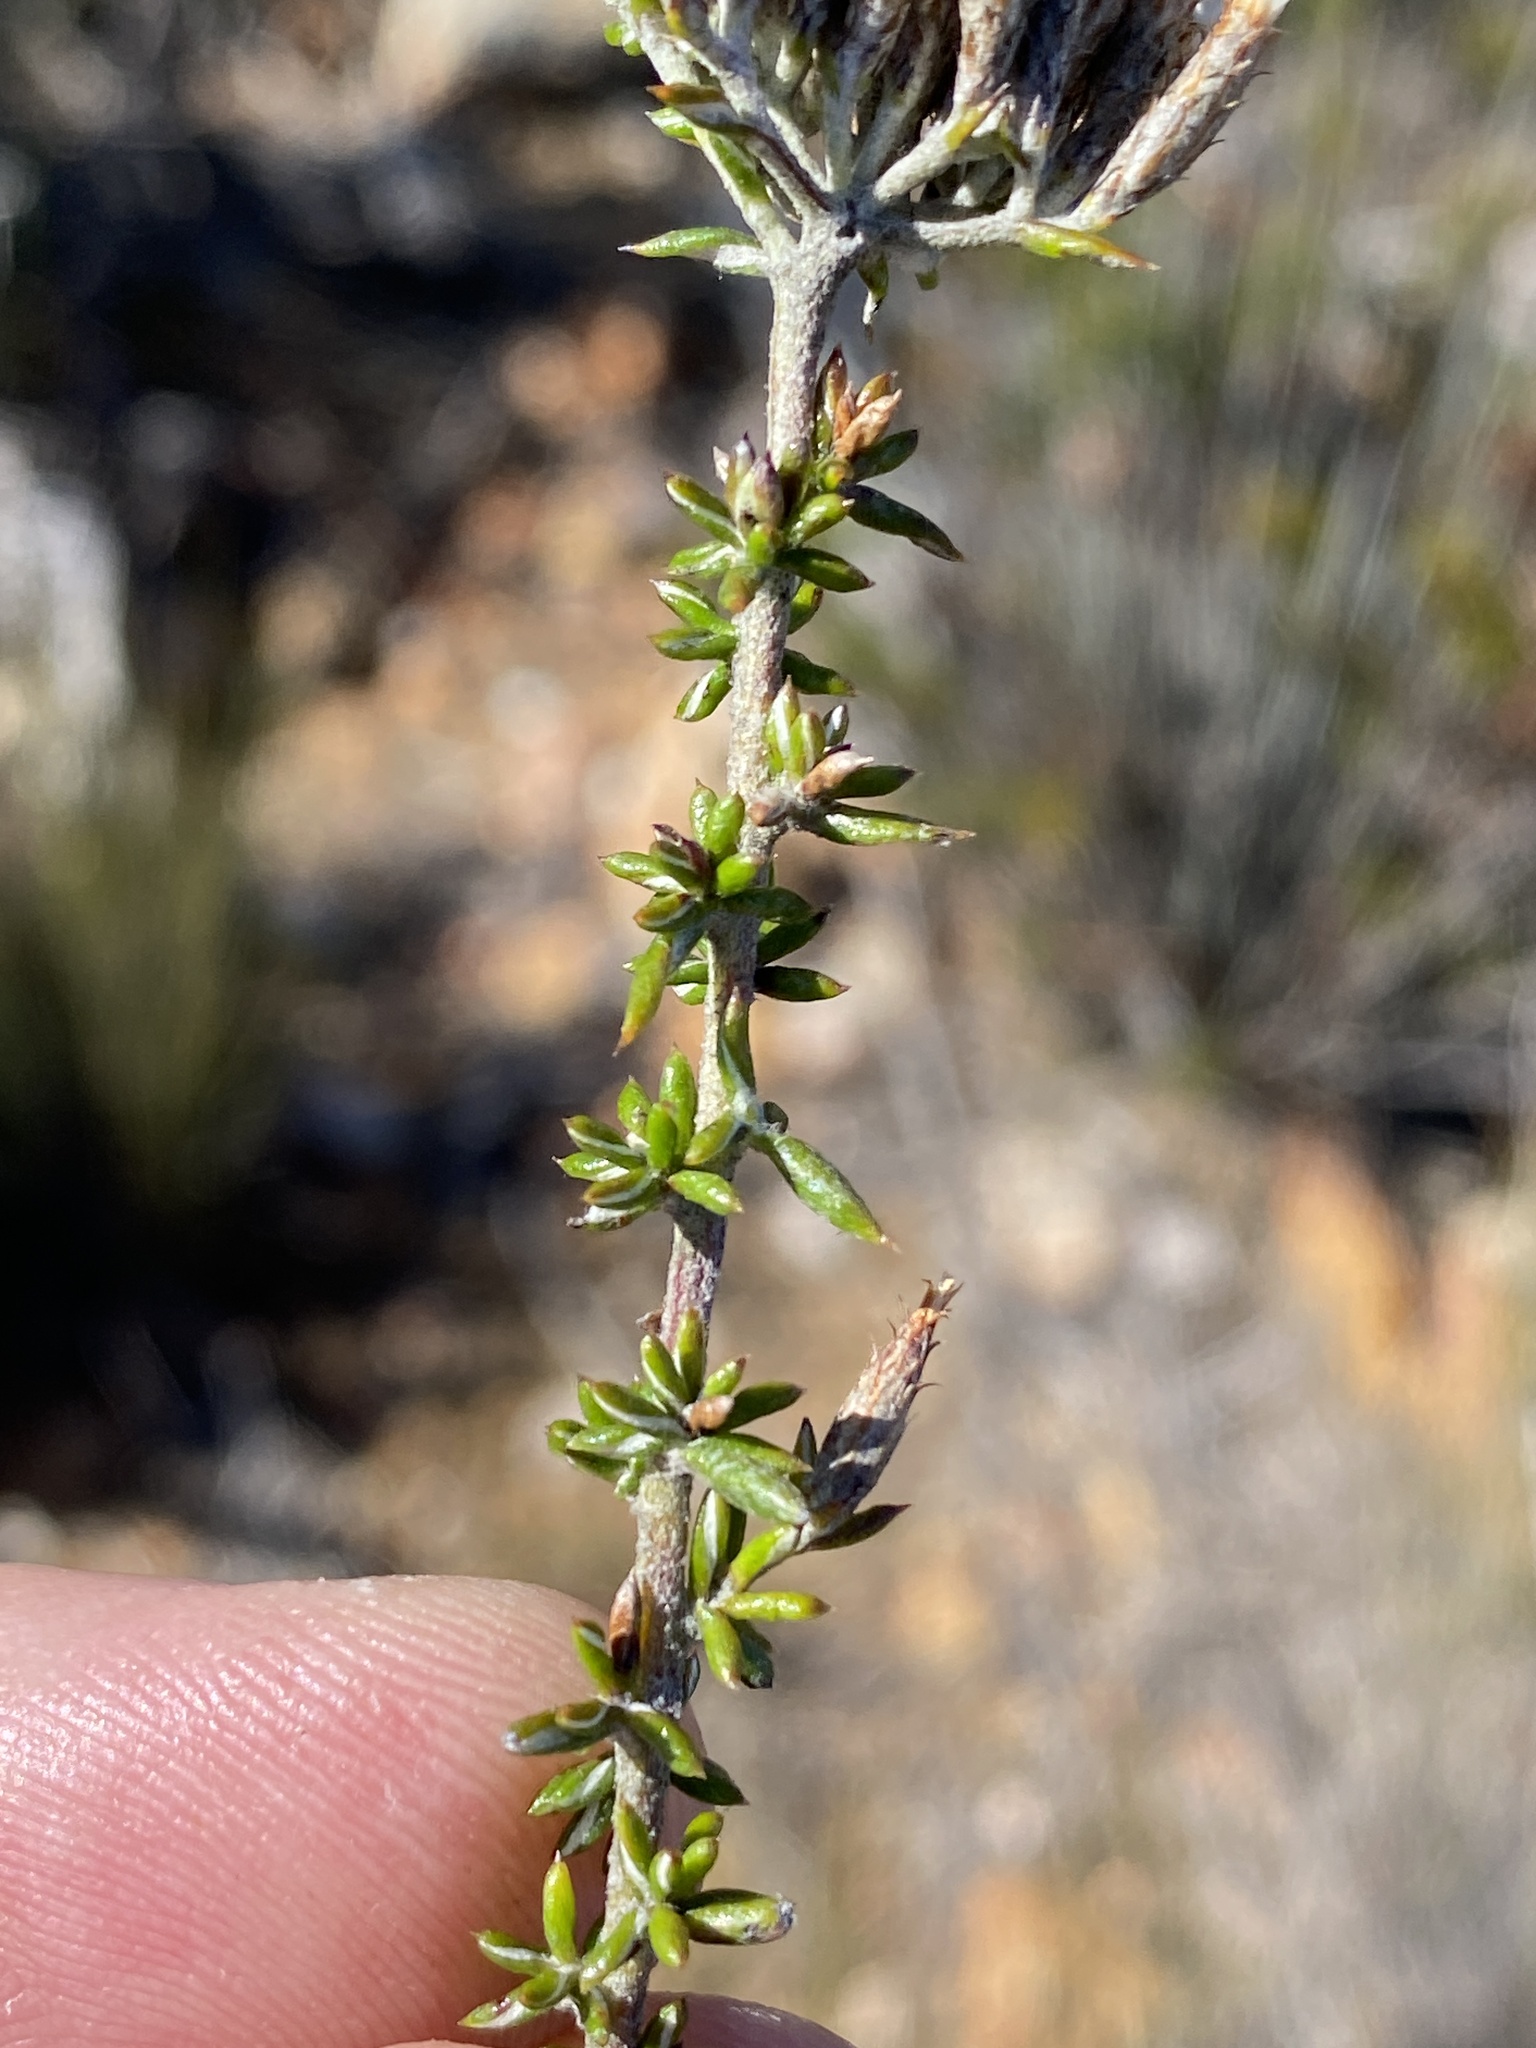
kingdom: Plantae
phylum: Tracheophyta
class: Magnoliopsida
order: Asterales
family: Asteraceae
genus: Metalasia
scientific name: Metalasia massonii
